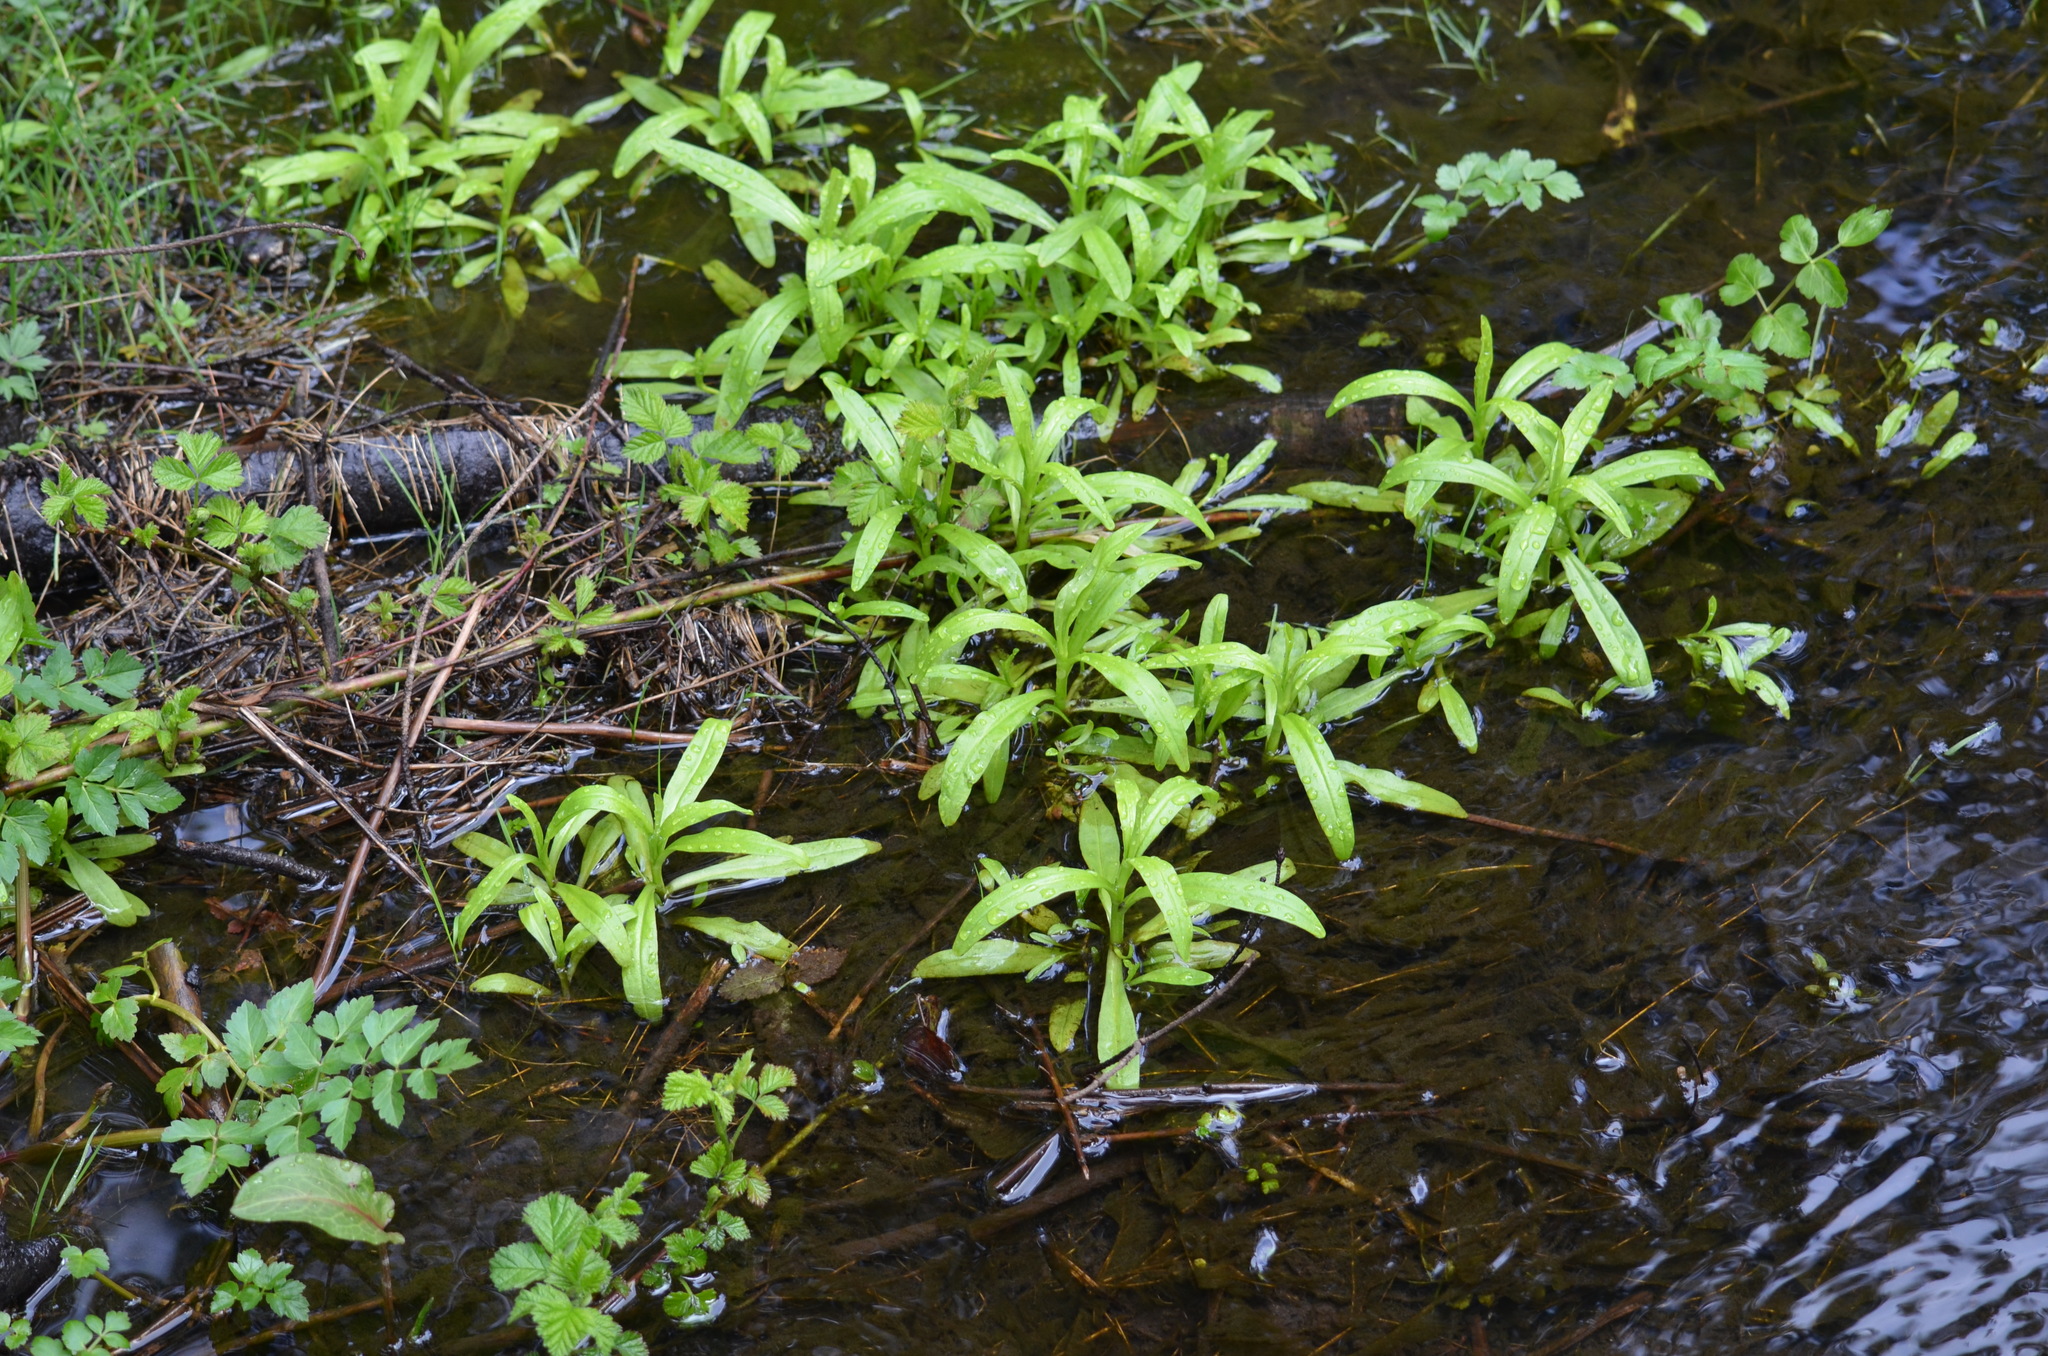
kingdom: Plantae
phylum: Tracheophyta
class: Magnoliopsida
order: Boraginales
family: Boraginaceae
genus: Myosotis
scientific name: Myosotis scorpioides
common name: Water forget-me-not
